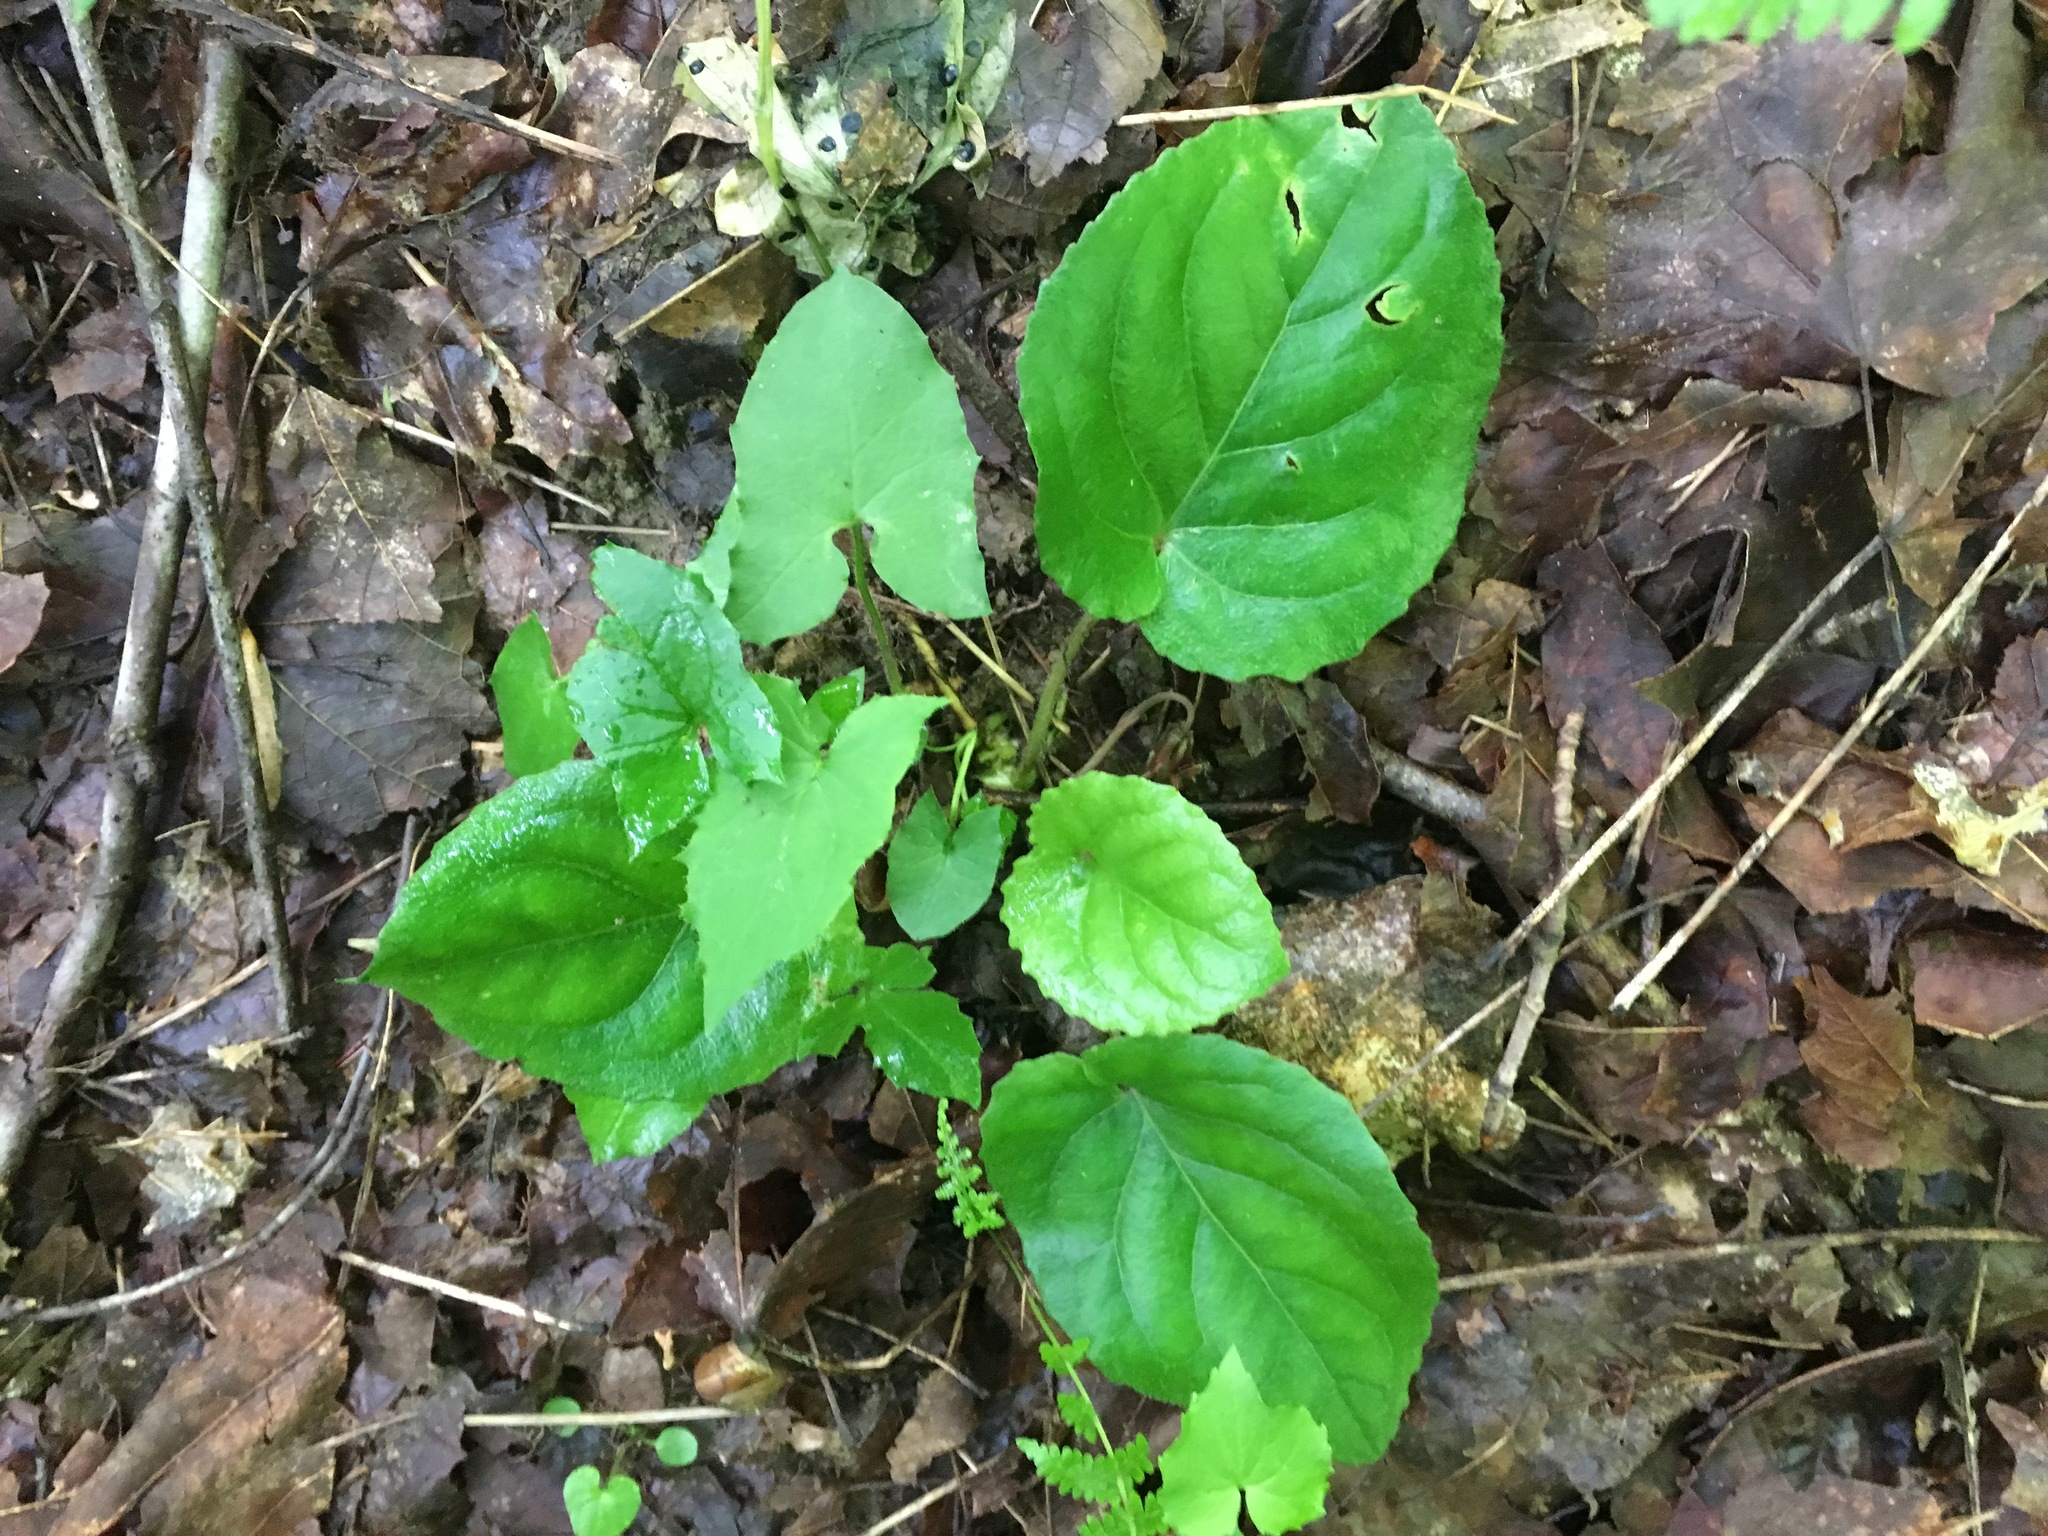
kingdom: Plantae
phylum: Tracheophyta
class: Magnoliopsida
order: Malpighiales
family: Violaceae
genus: Viola
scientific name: Viola rotundifolia
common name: Early yellow violet
